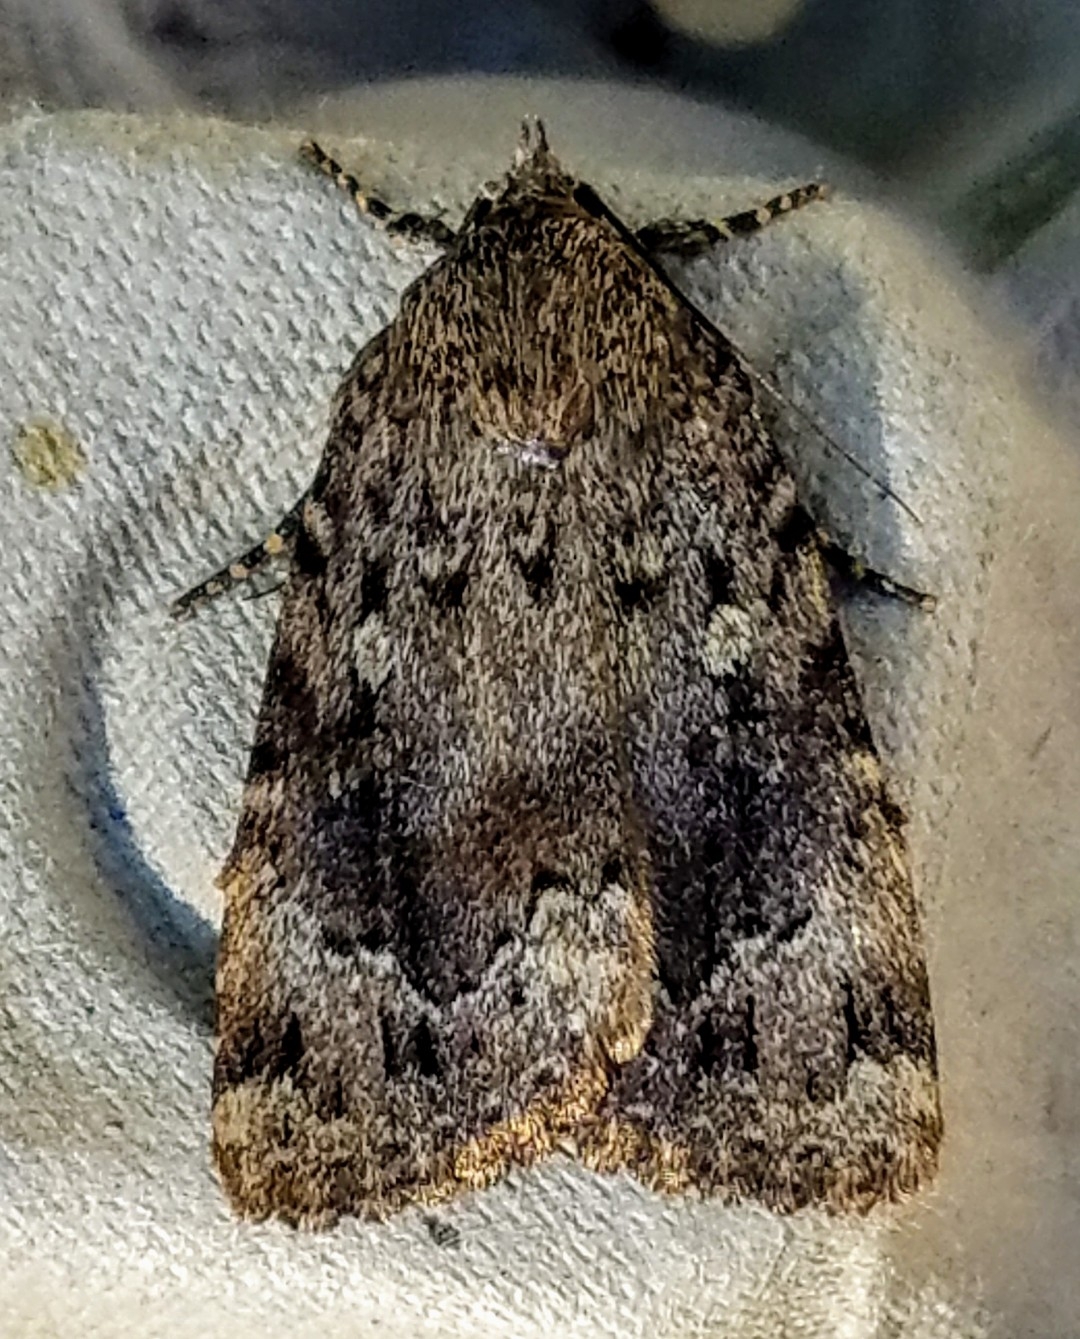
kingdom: Animalia
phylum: Arthropoda
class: Insecta
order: Lepidoptera
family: Noctuidae
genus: Amphipyra
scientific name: Amphipyra pyramidoides
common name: American copper underwing
